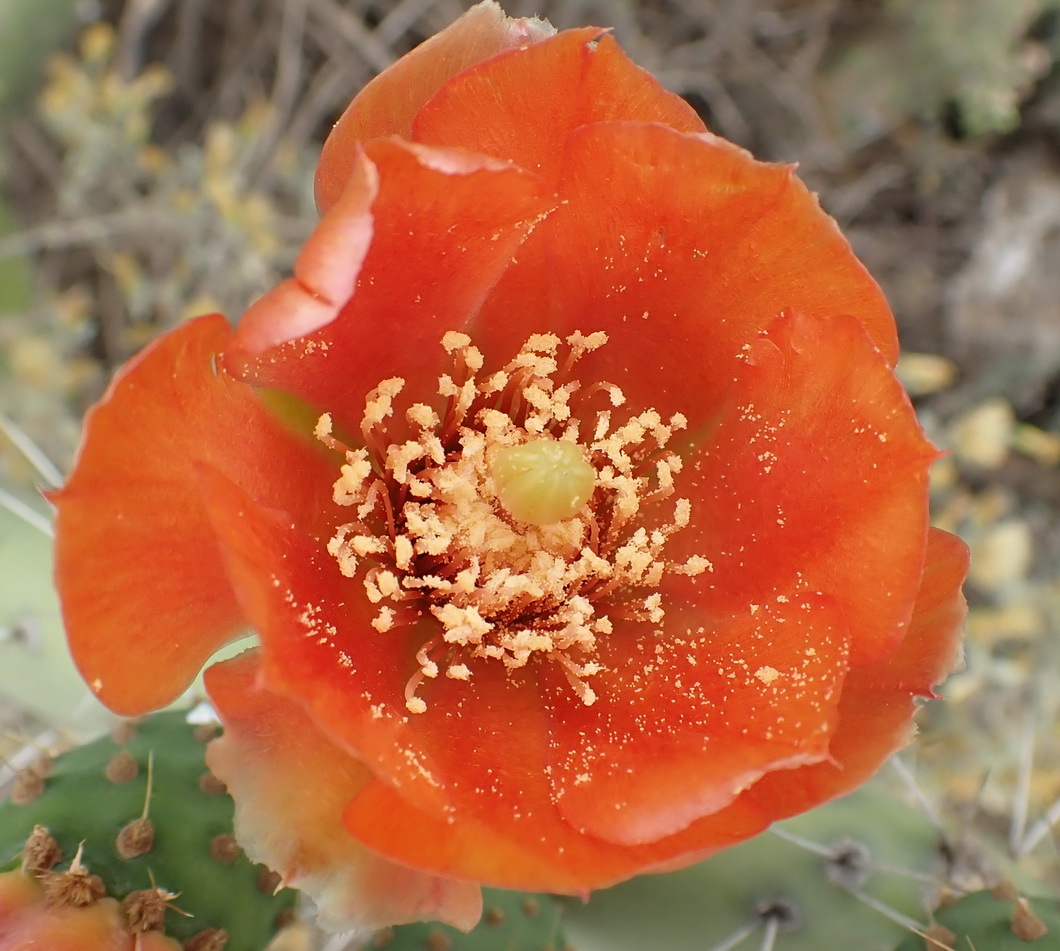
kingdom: Plantae
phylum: Tracheophyta
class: Magnoliopsida
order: Caryophyllales
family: Cactaceae
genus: Opuntia
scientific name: Opuntia ficus-indica
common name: Barbary fig
